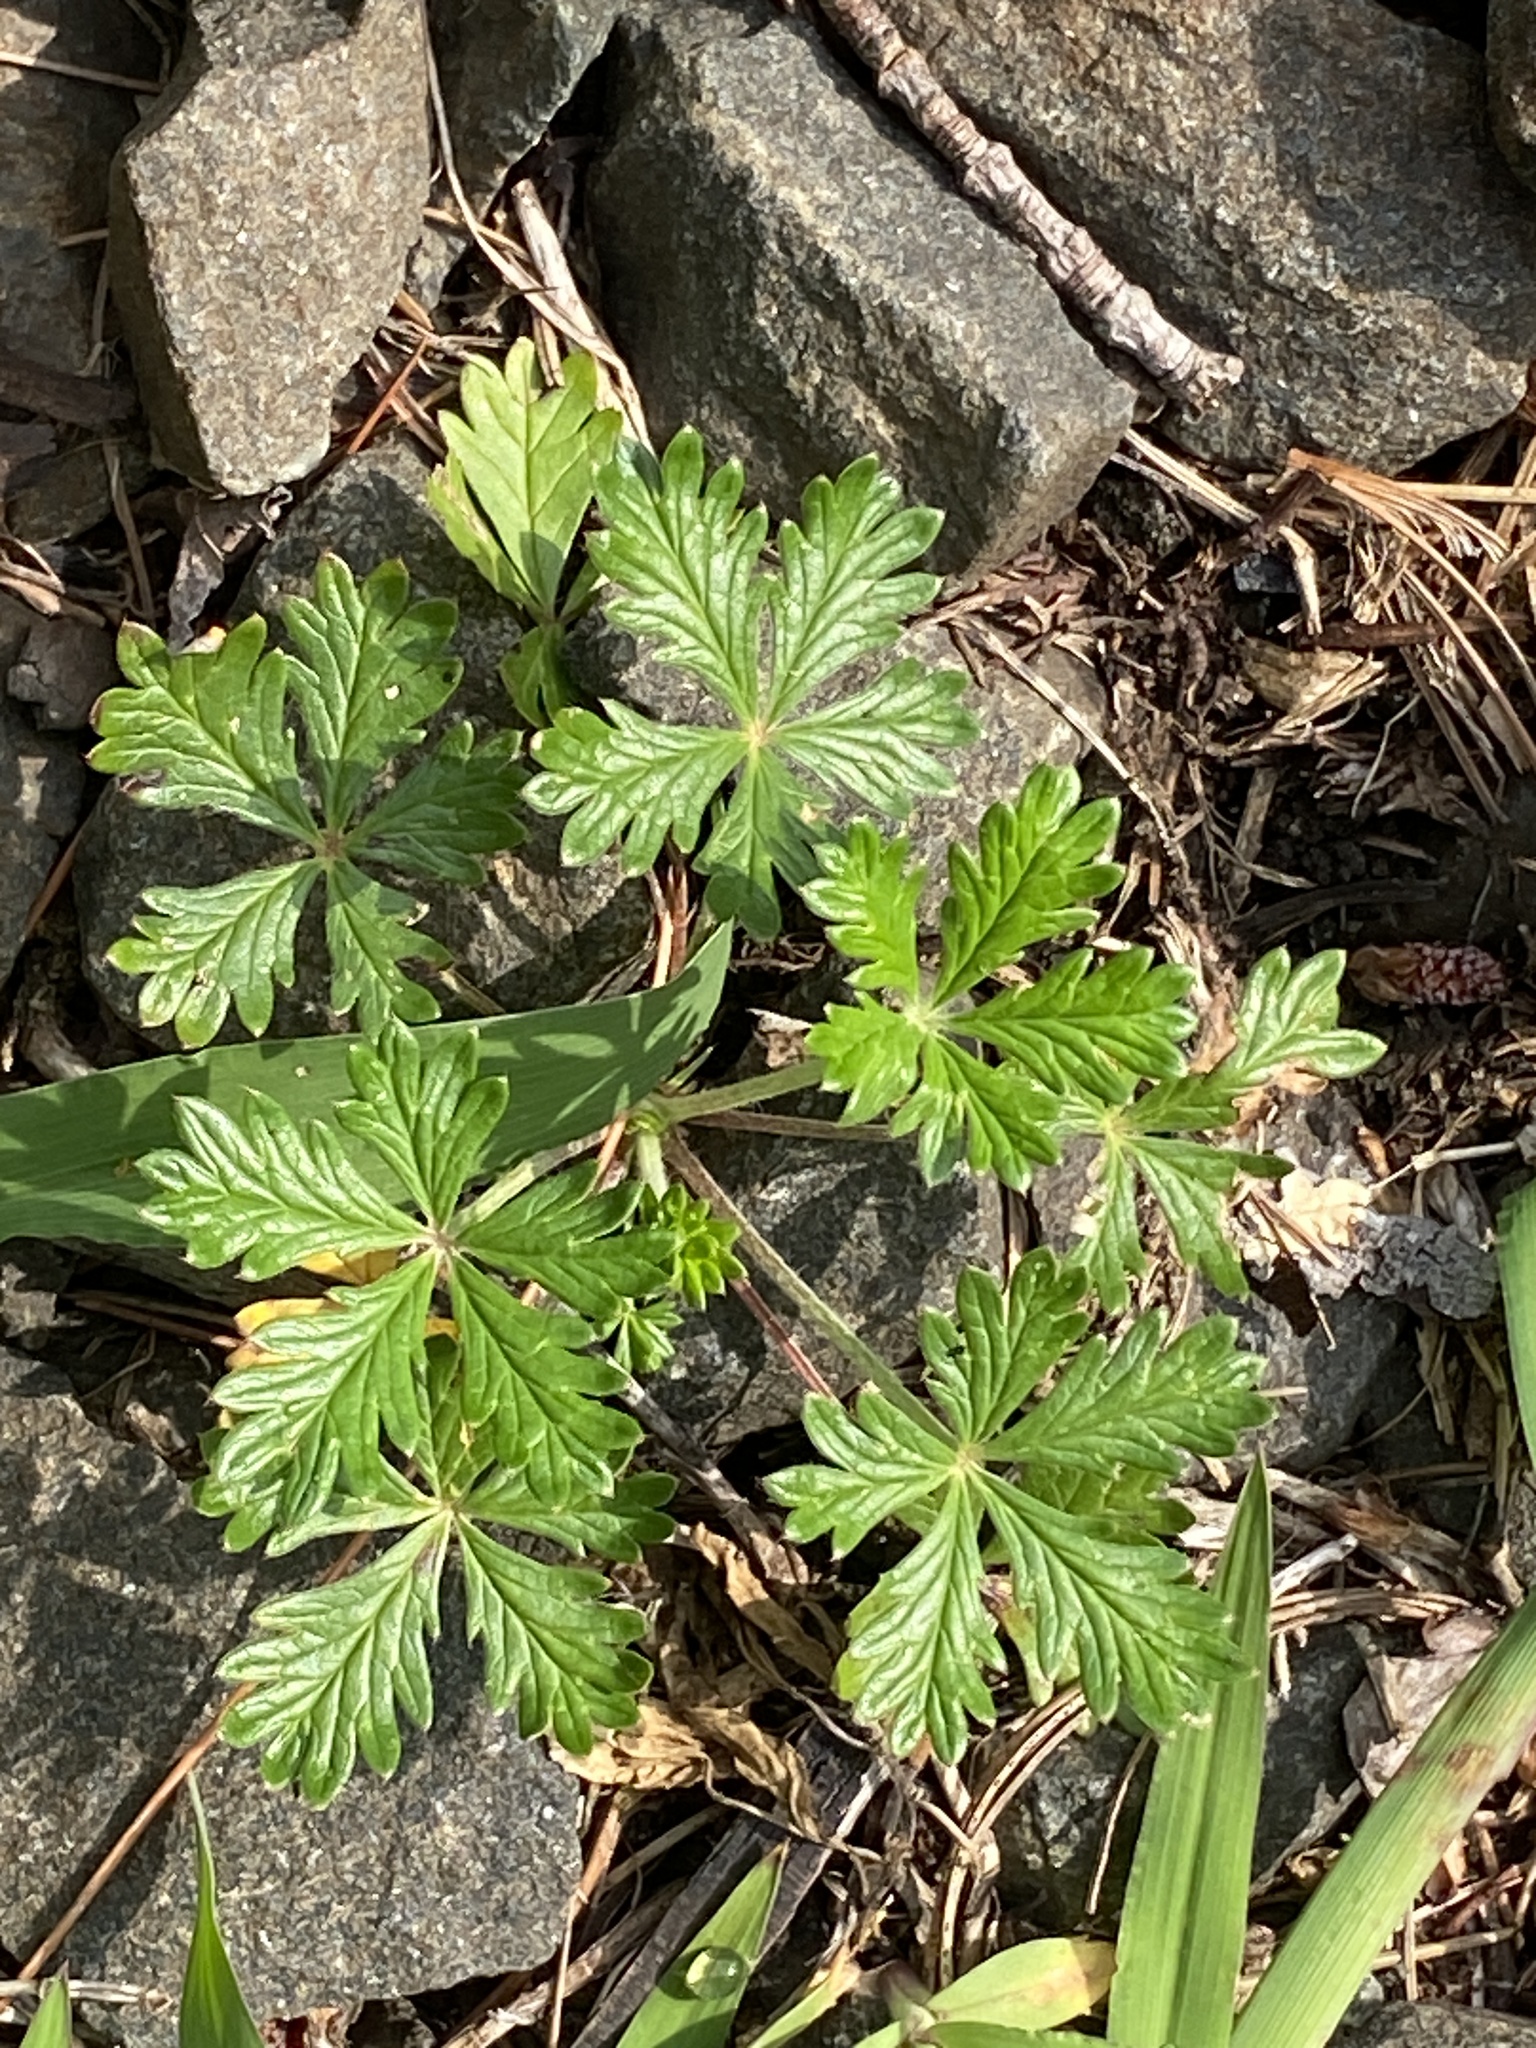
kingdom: Plantae
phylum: Tracheophyta
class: Magnoliopsida
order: Rosales
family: Rosaceae
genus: Potentilla
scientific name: Potentilla argentea
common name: Hoary cinquefoil
